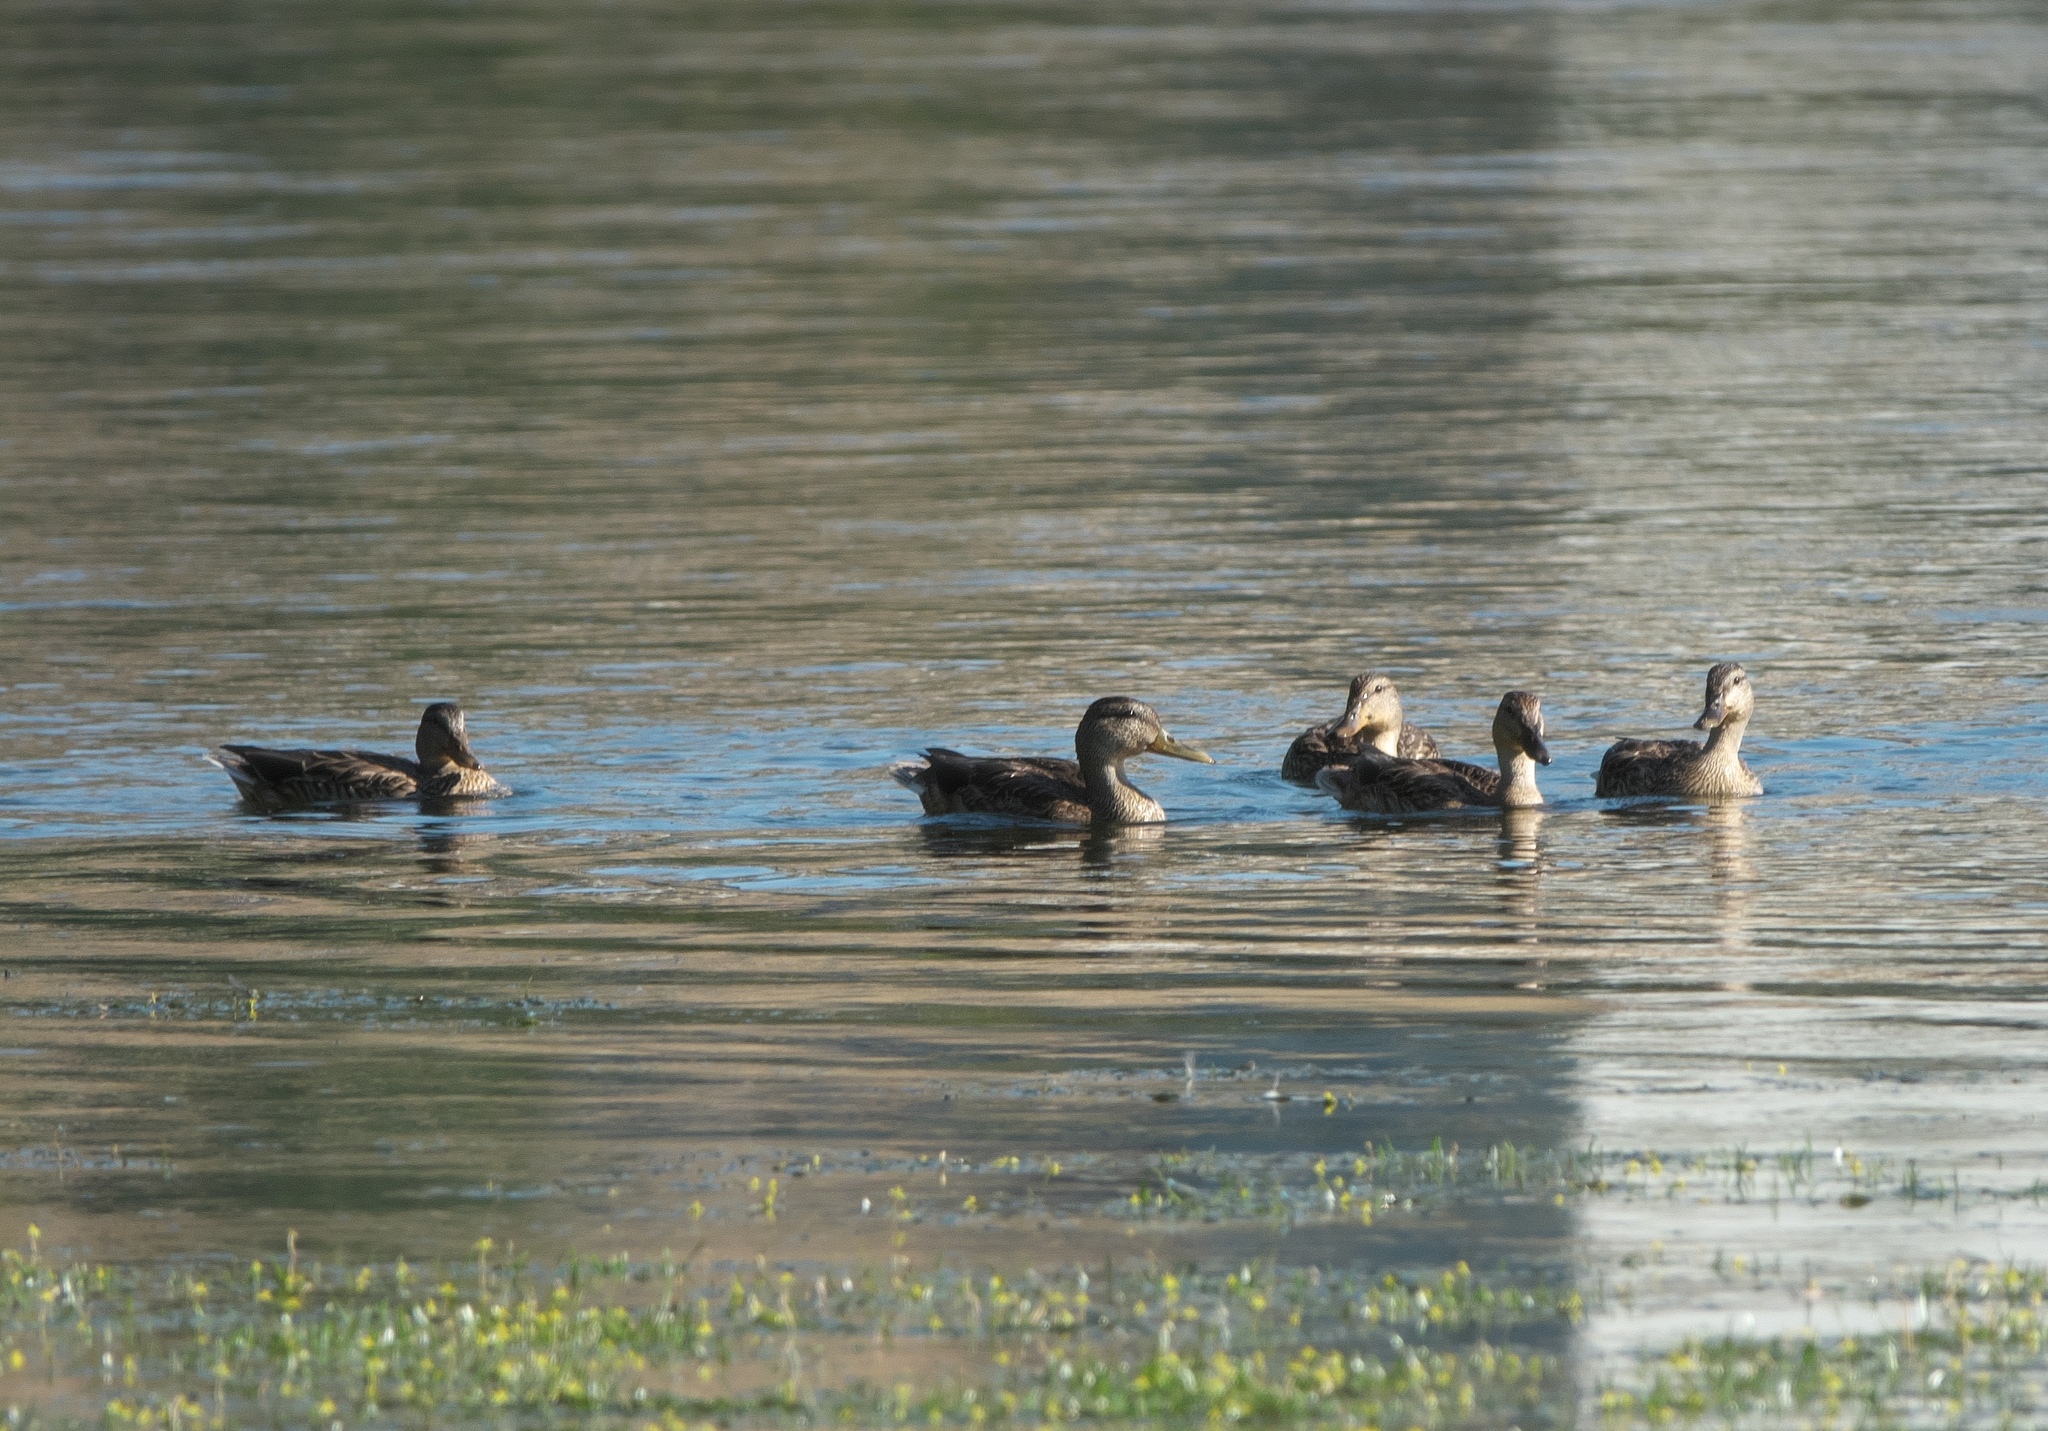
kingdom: Animalia
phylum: Chordata
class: Aves
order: Anseriformes
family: Anatidae
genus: Anas
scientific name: Anas platyrhynchos
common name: Mallard
